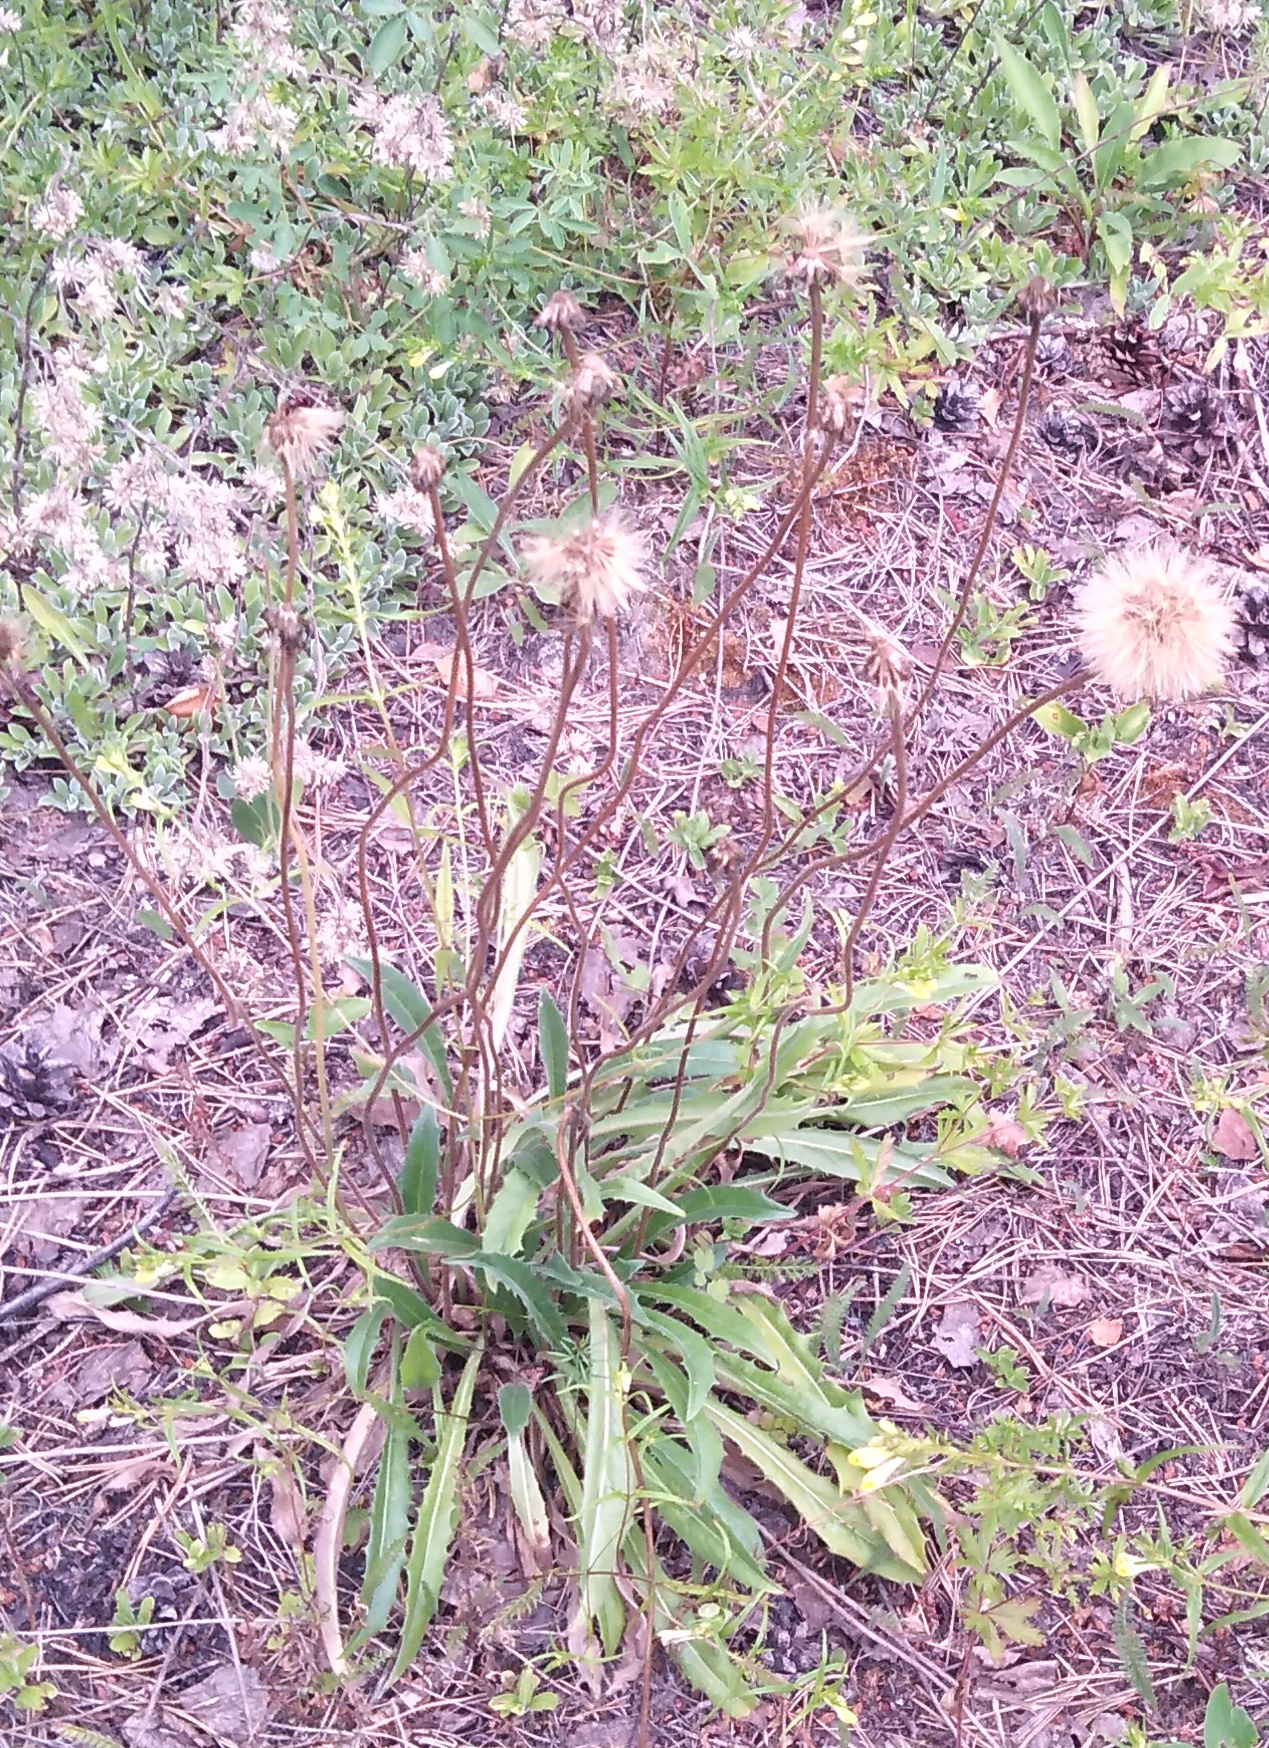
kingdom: Plantae
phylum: Tracheophyta
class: Magnoliopsida
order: Asterales
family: Asteraceae
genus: Leontodon
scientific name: Leontodon hispidus
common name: Rough hawkbit
